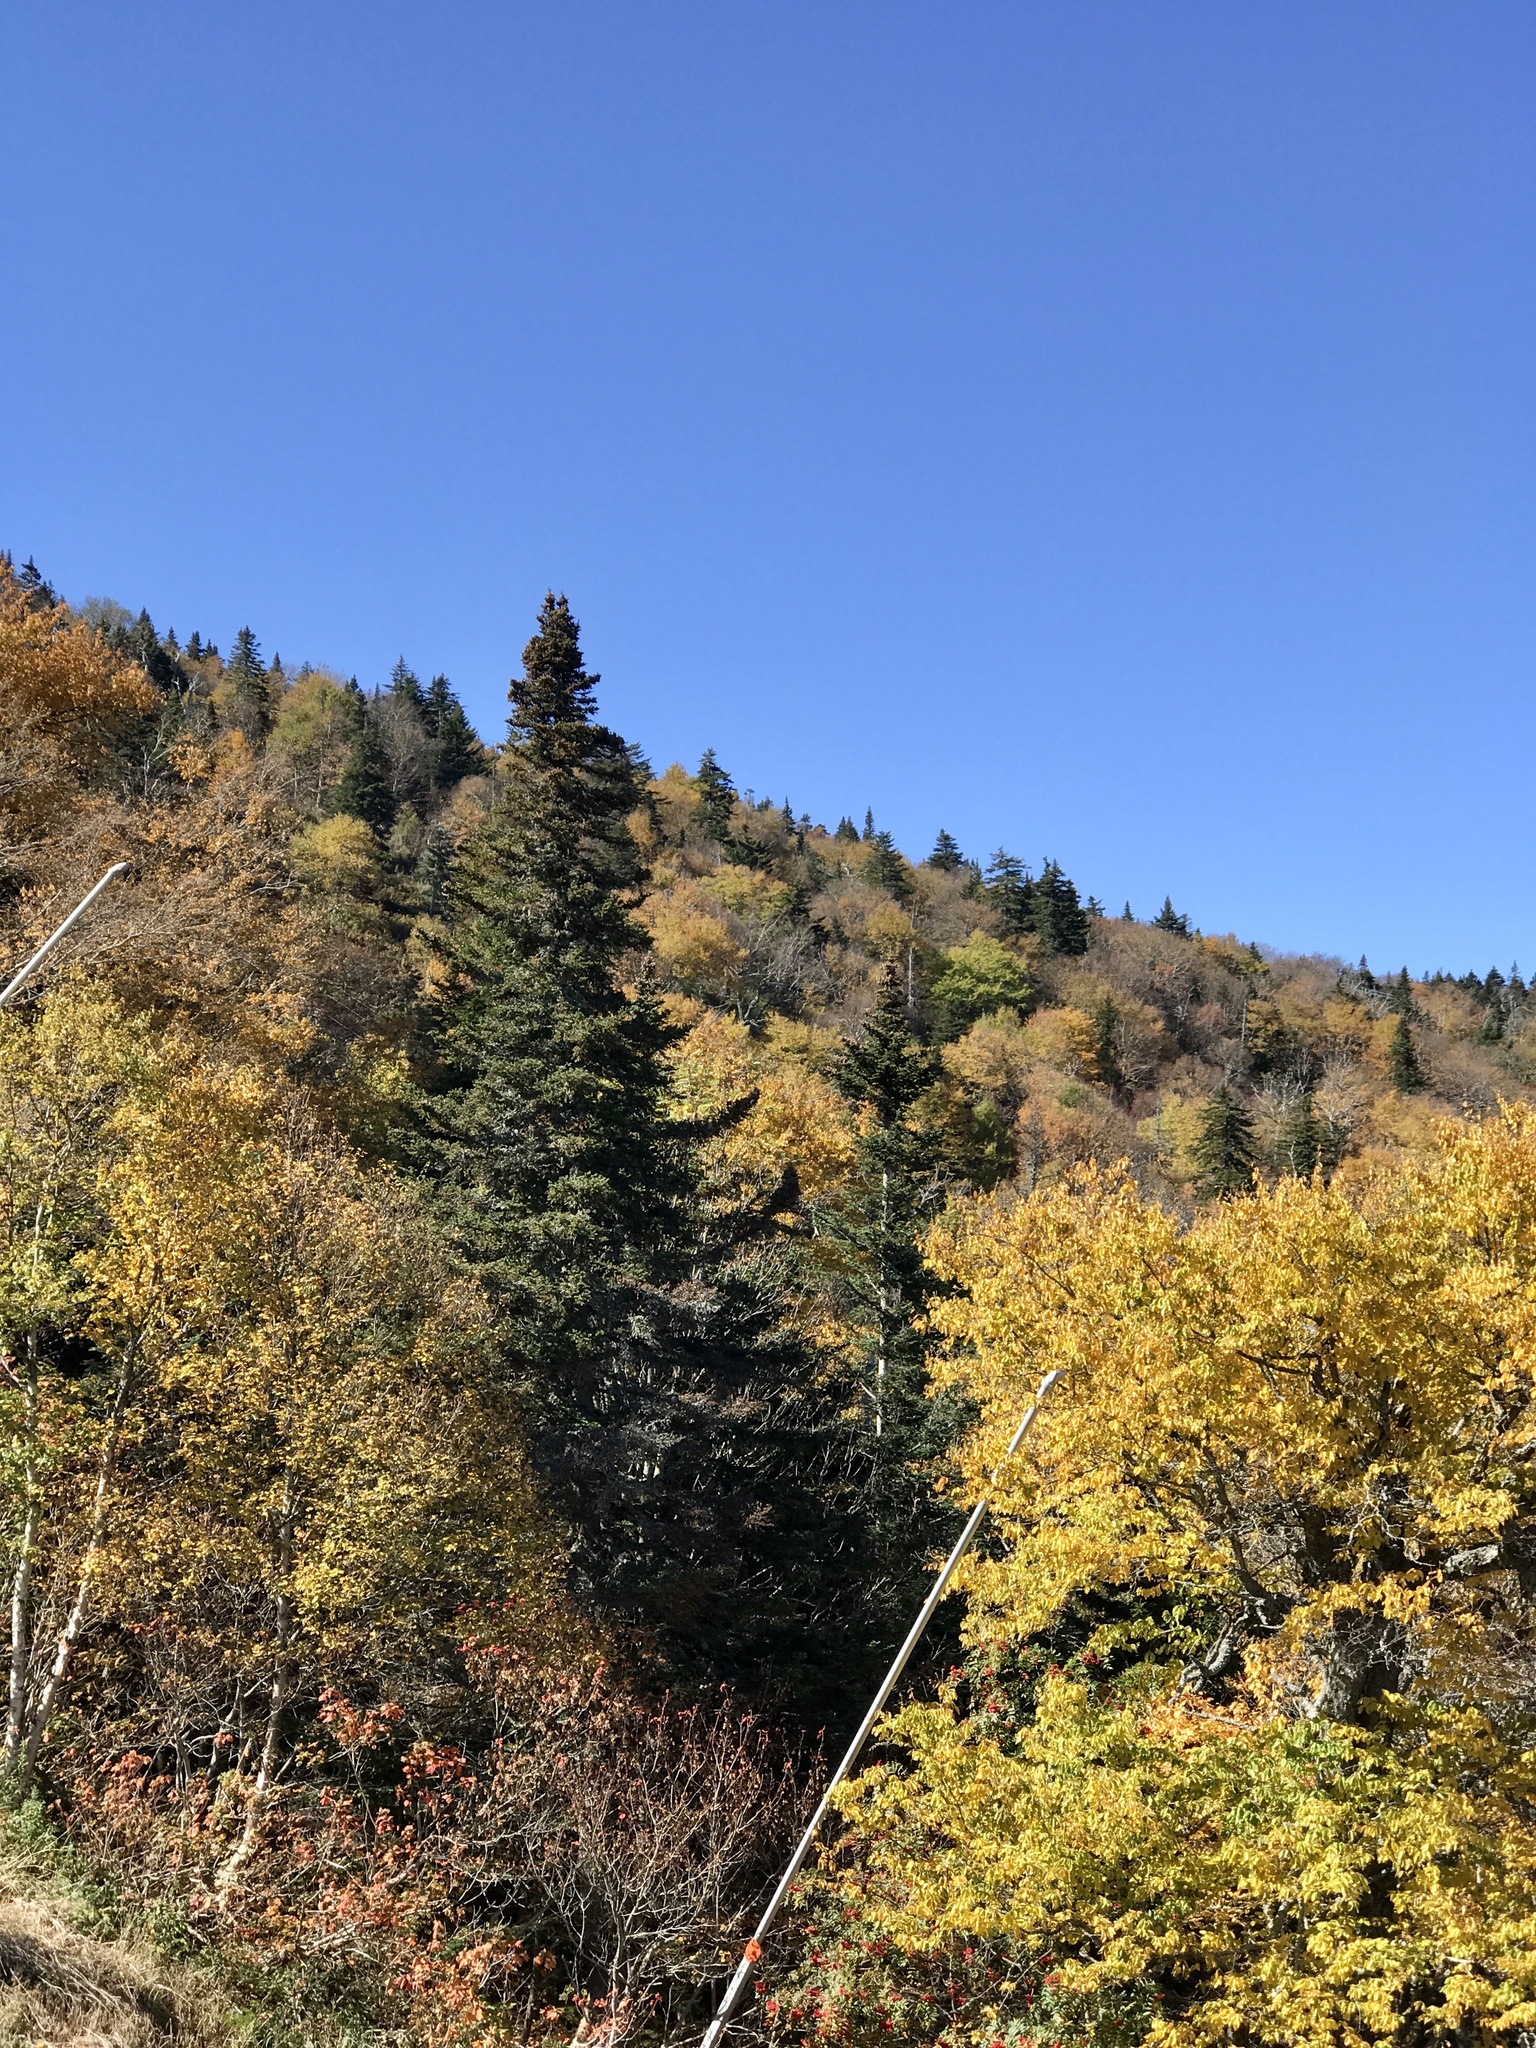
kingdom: Plantae
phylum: Tracheophyta
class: Pinopsida
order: Pinales
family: Pinaceae
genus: Abies
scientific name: Abies balsamea
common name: Balsam fir
